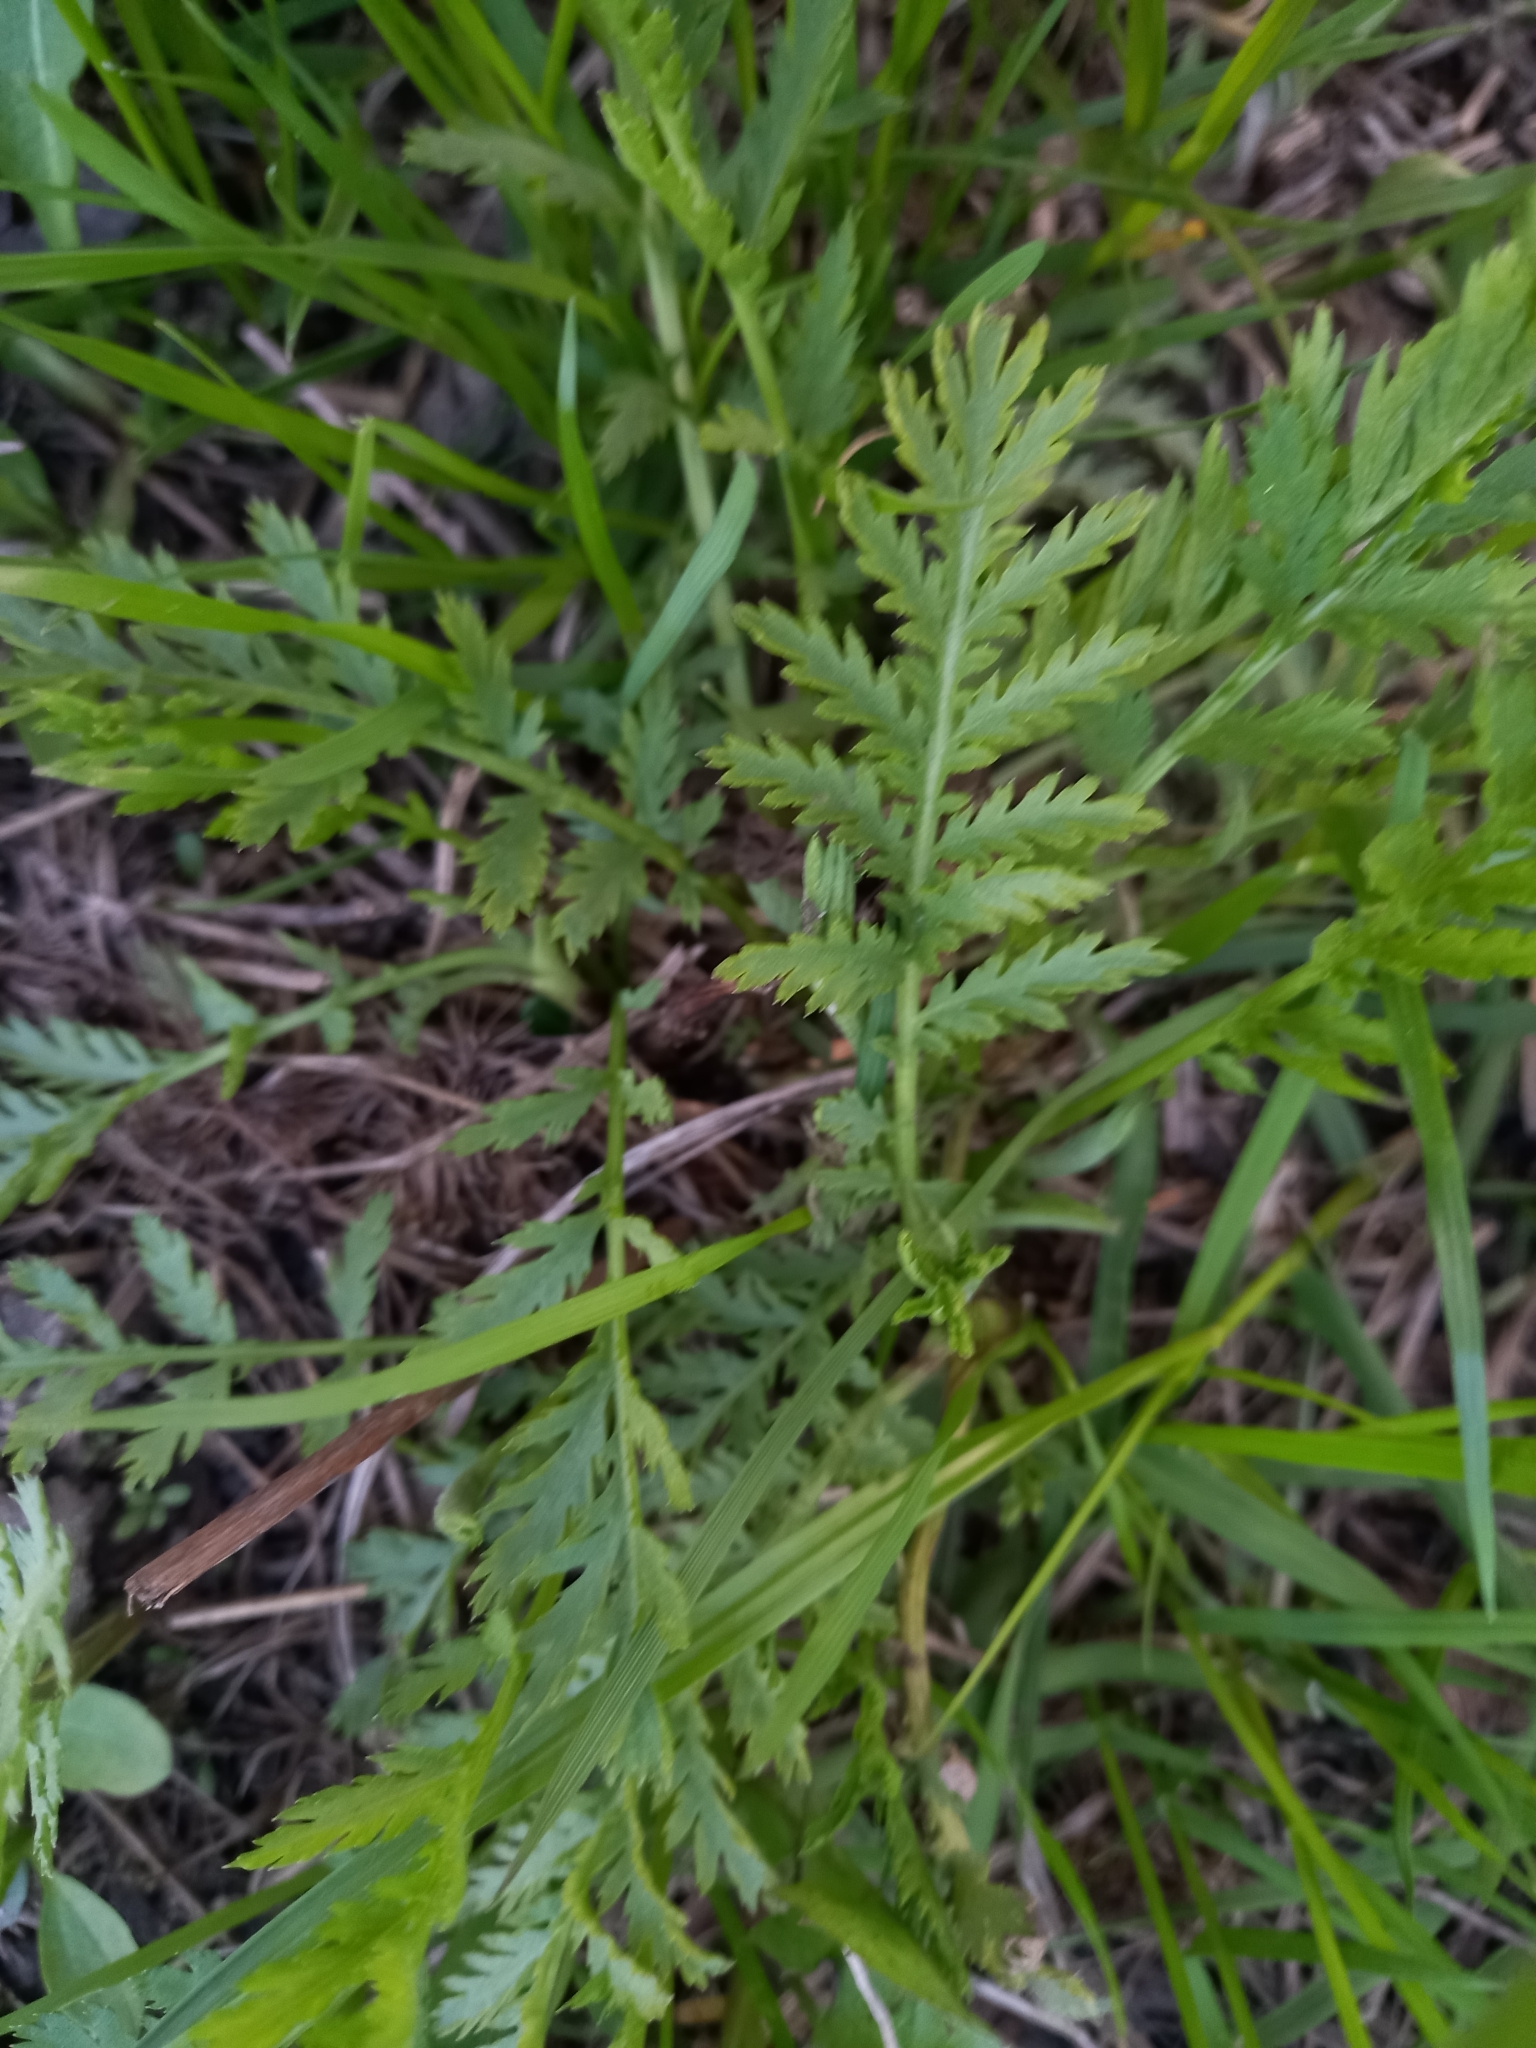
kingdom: Plantae
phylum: Tracheophyta
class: Magnoliopsida
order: Asterales
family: Asteraceae
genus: Tanacetum
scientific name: Tanacetum vulgare
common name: Common tansy
